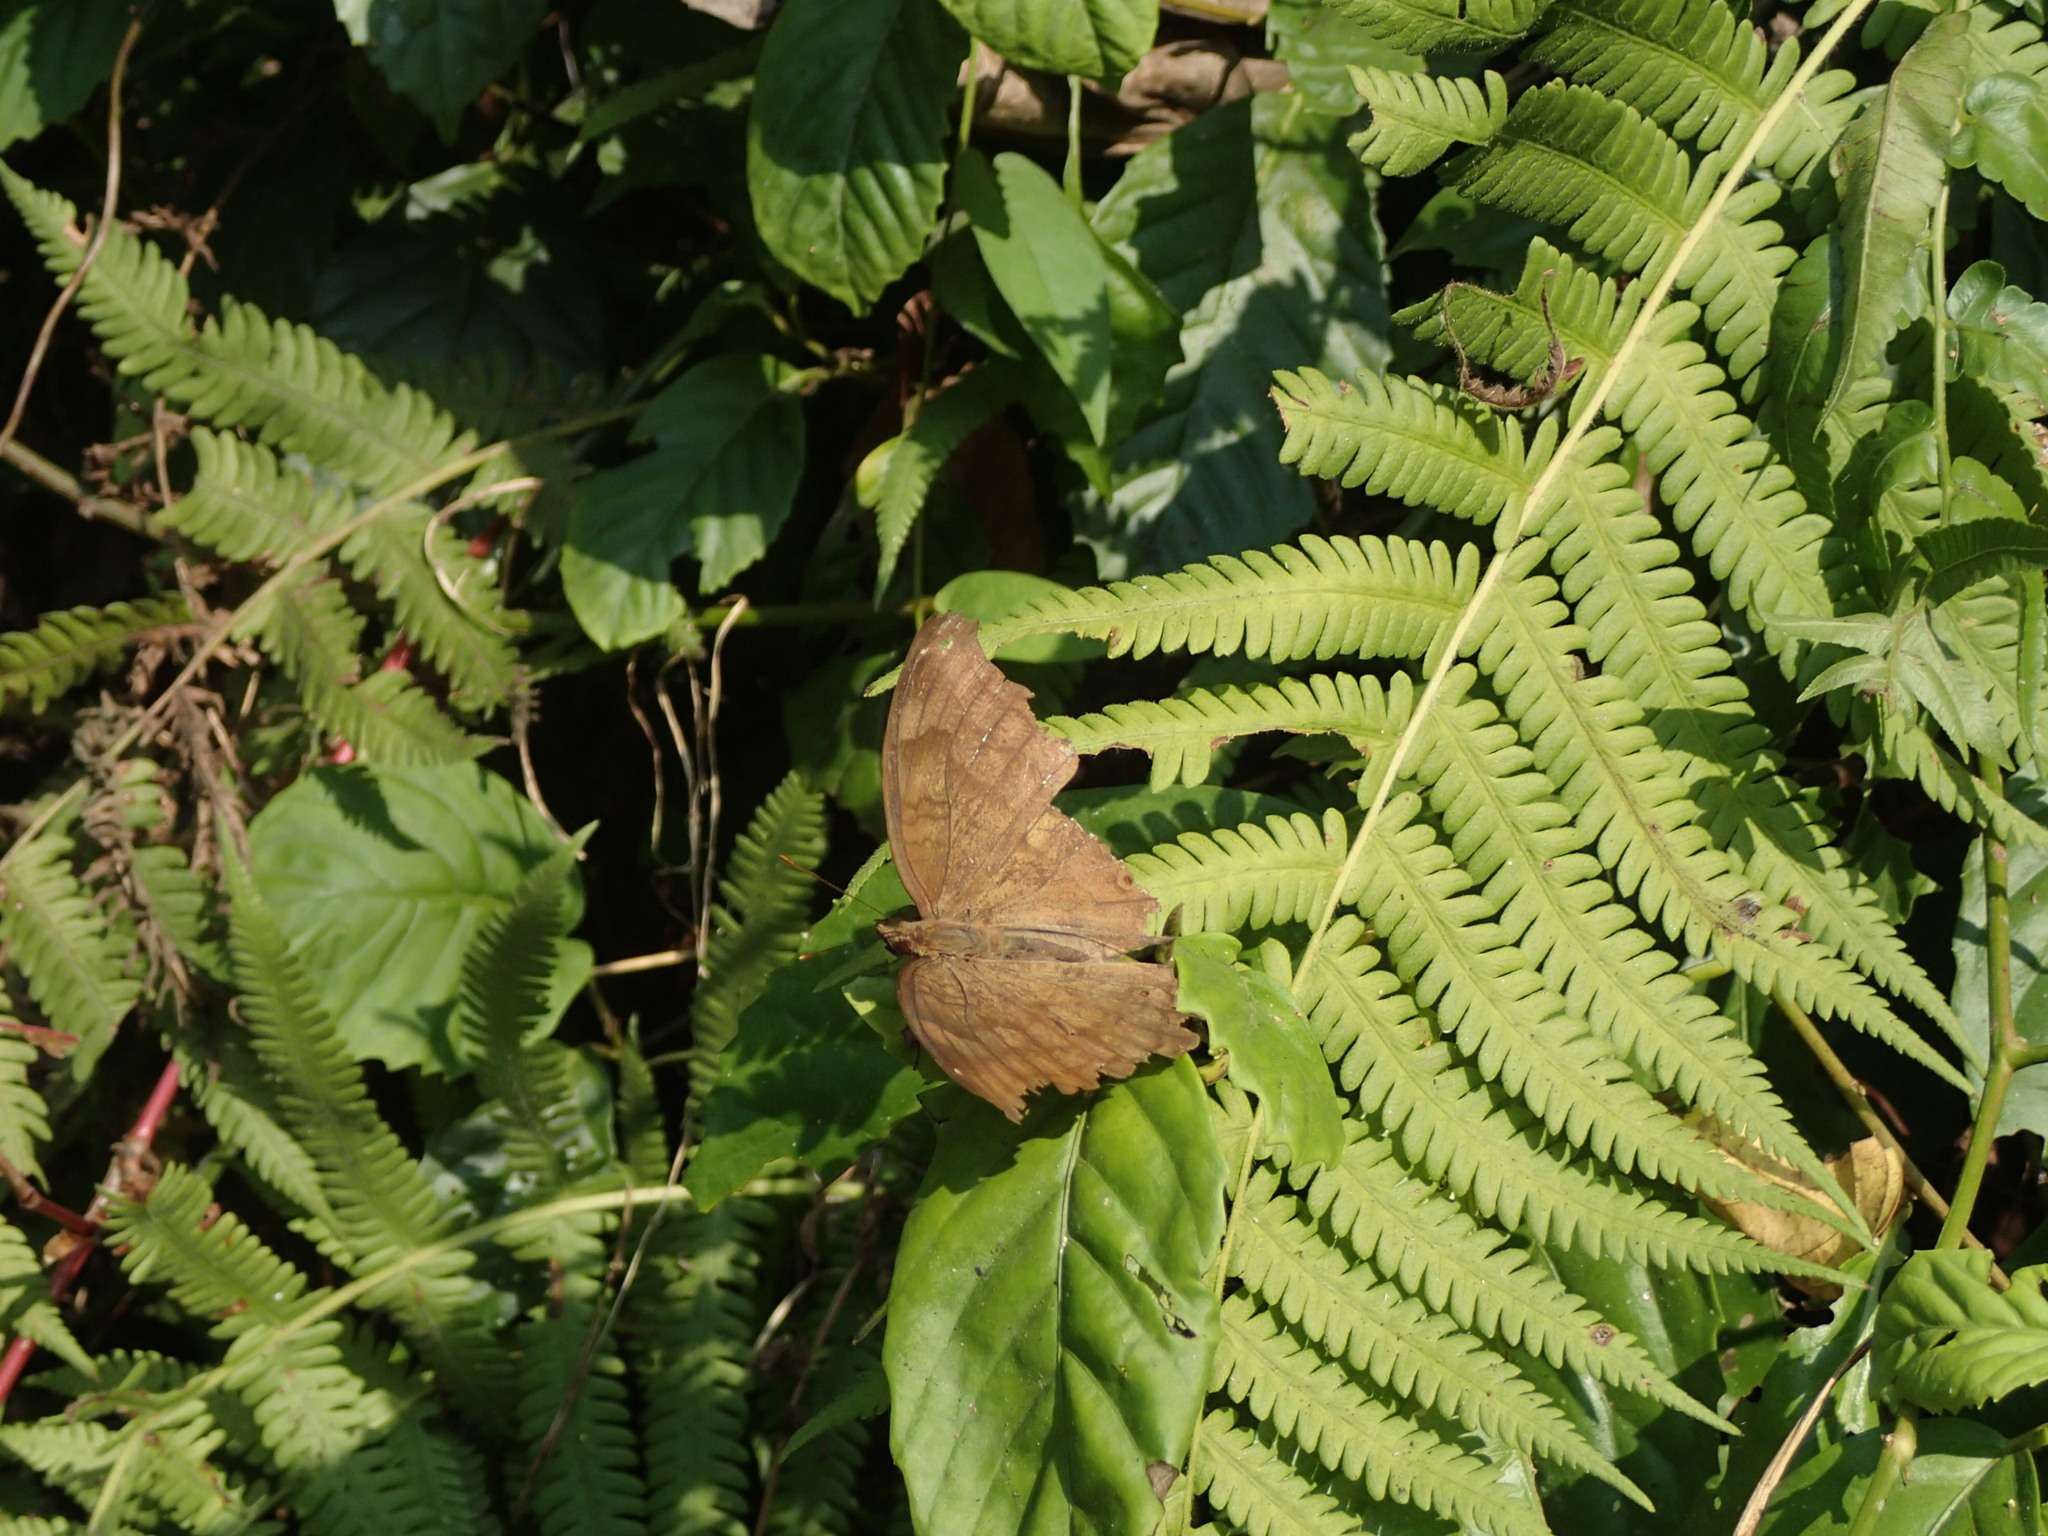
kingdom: Animalia
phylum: Arthropoda
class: Insecta
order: Lepidoptera
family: Nymphalidae
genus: Junonia
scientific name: Junonia iphita
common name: Chocolate pansy
